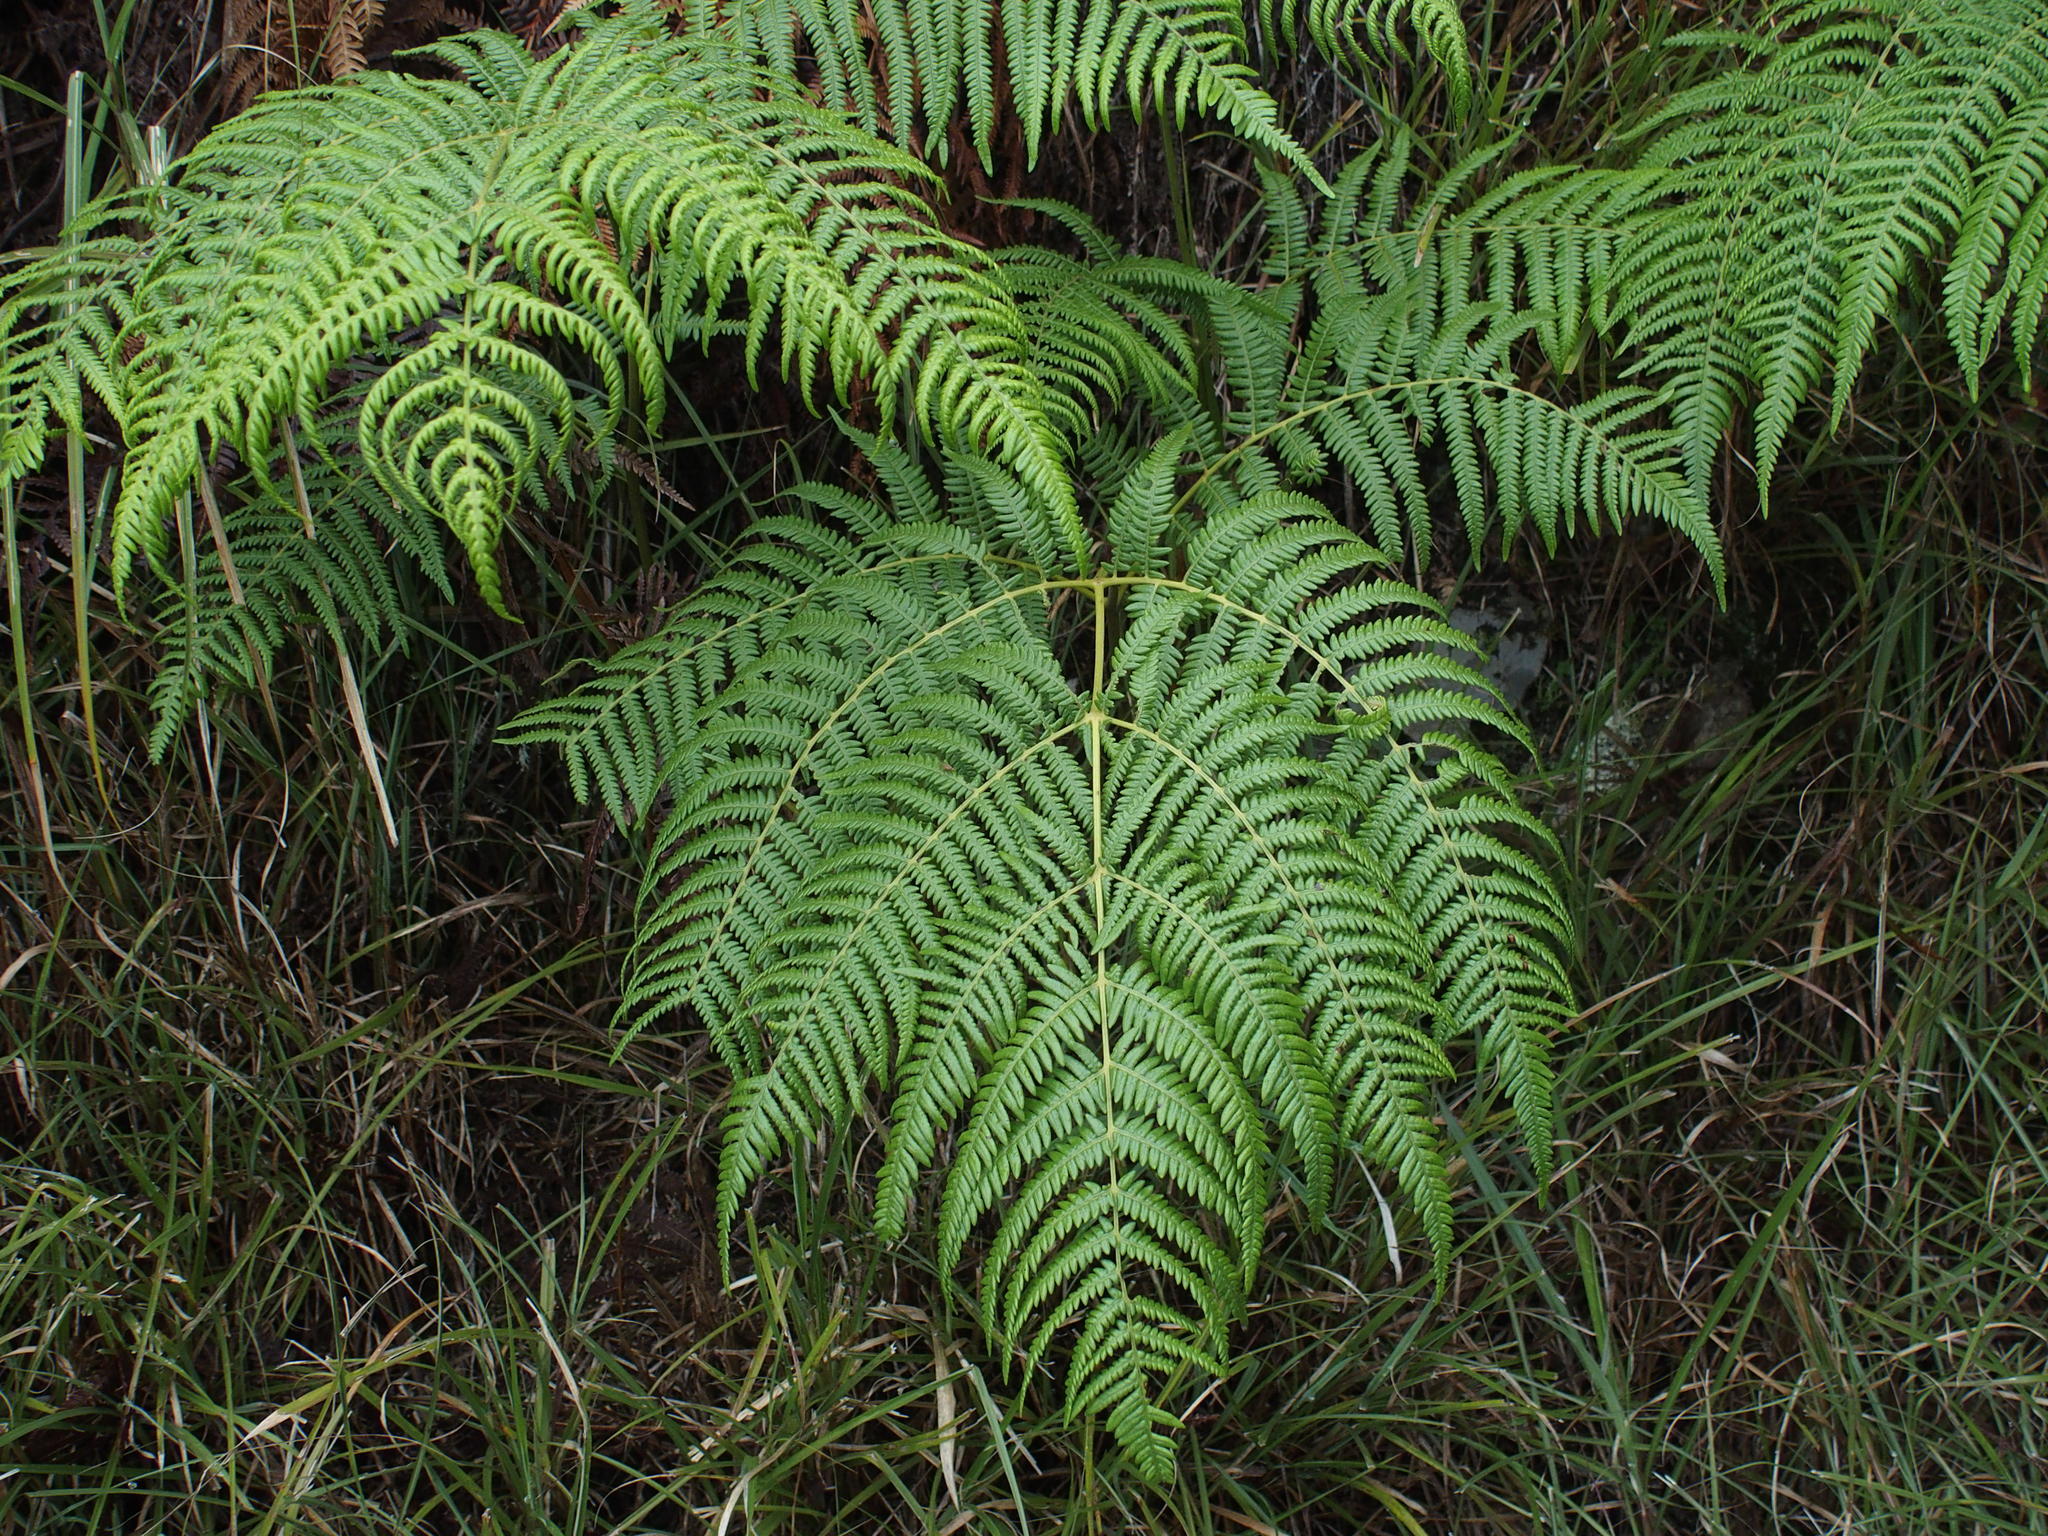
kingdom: Plantae
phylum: Tracheophyta
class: Polypodiopsida
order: Polypodiales
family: Dennstaedtiaceae
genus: Pteridium
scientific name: Pteridium aquilinum
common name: Bracken
